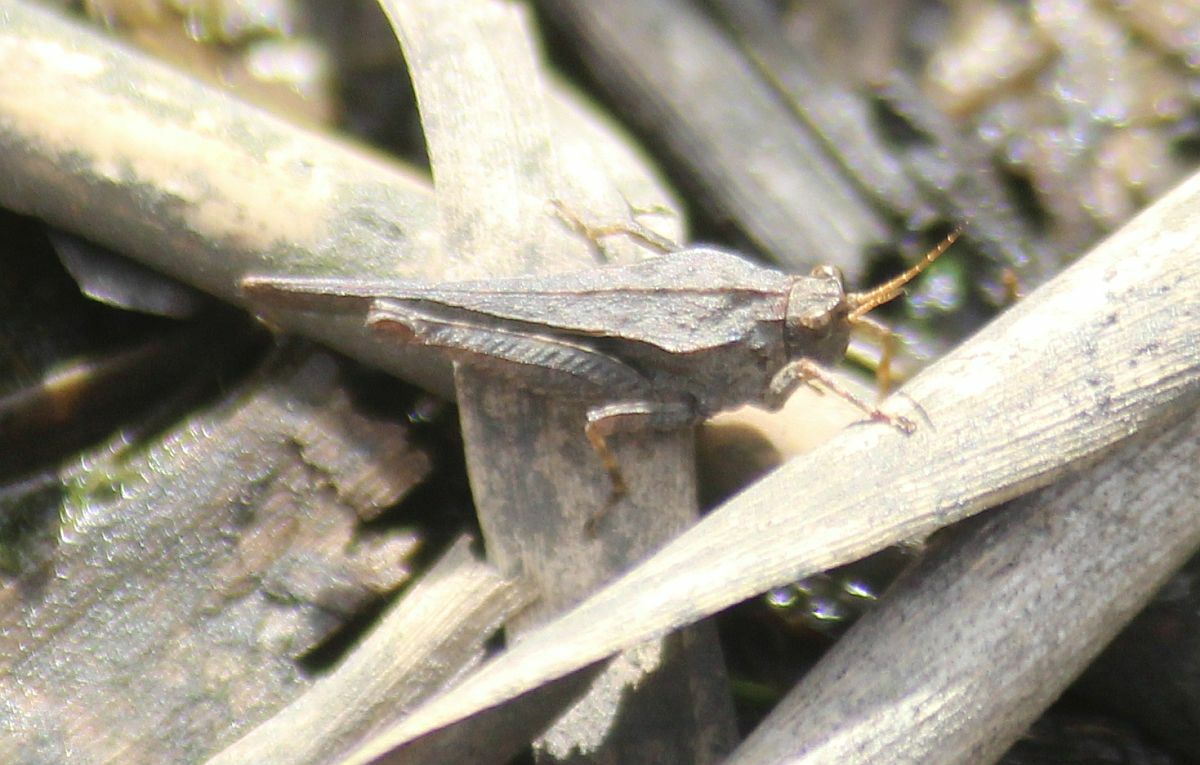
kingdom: Animalia
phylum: Arthropoda
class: Insecta
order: Orthoptera
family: Tetrigidae
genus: Tetrix
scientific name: Tetrix subulata
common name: Slender ground-hopper
